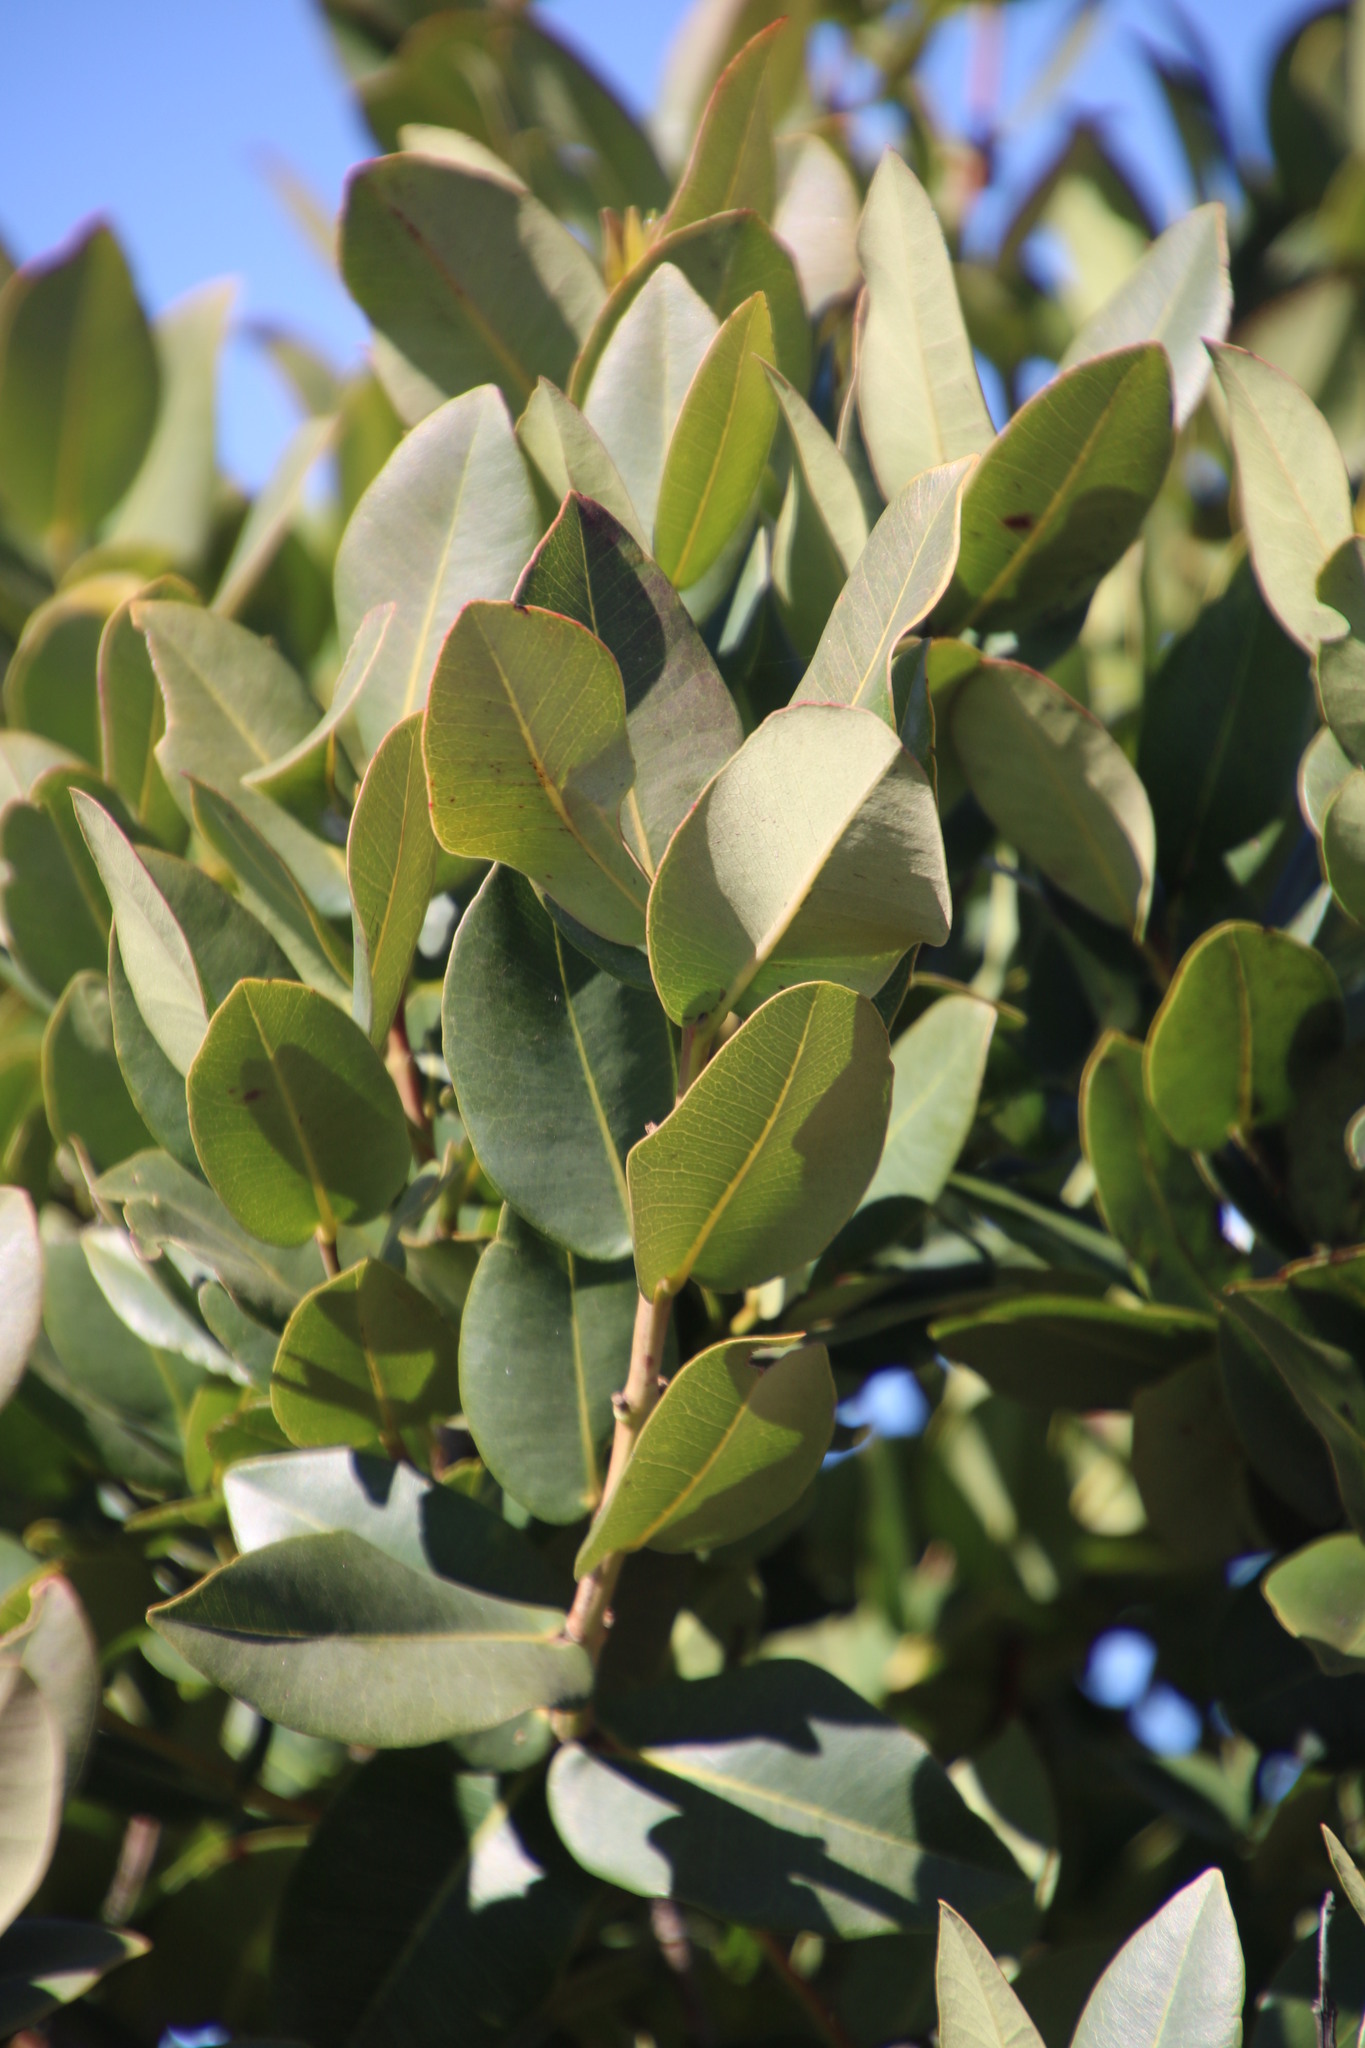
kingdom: Plantae
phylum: Tracheophyta
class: Magnoliopsida
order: Myrtales
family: Myrtaceae
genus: Syzygium
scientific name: Syzygium cordatum
